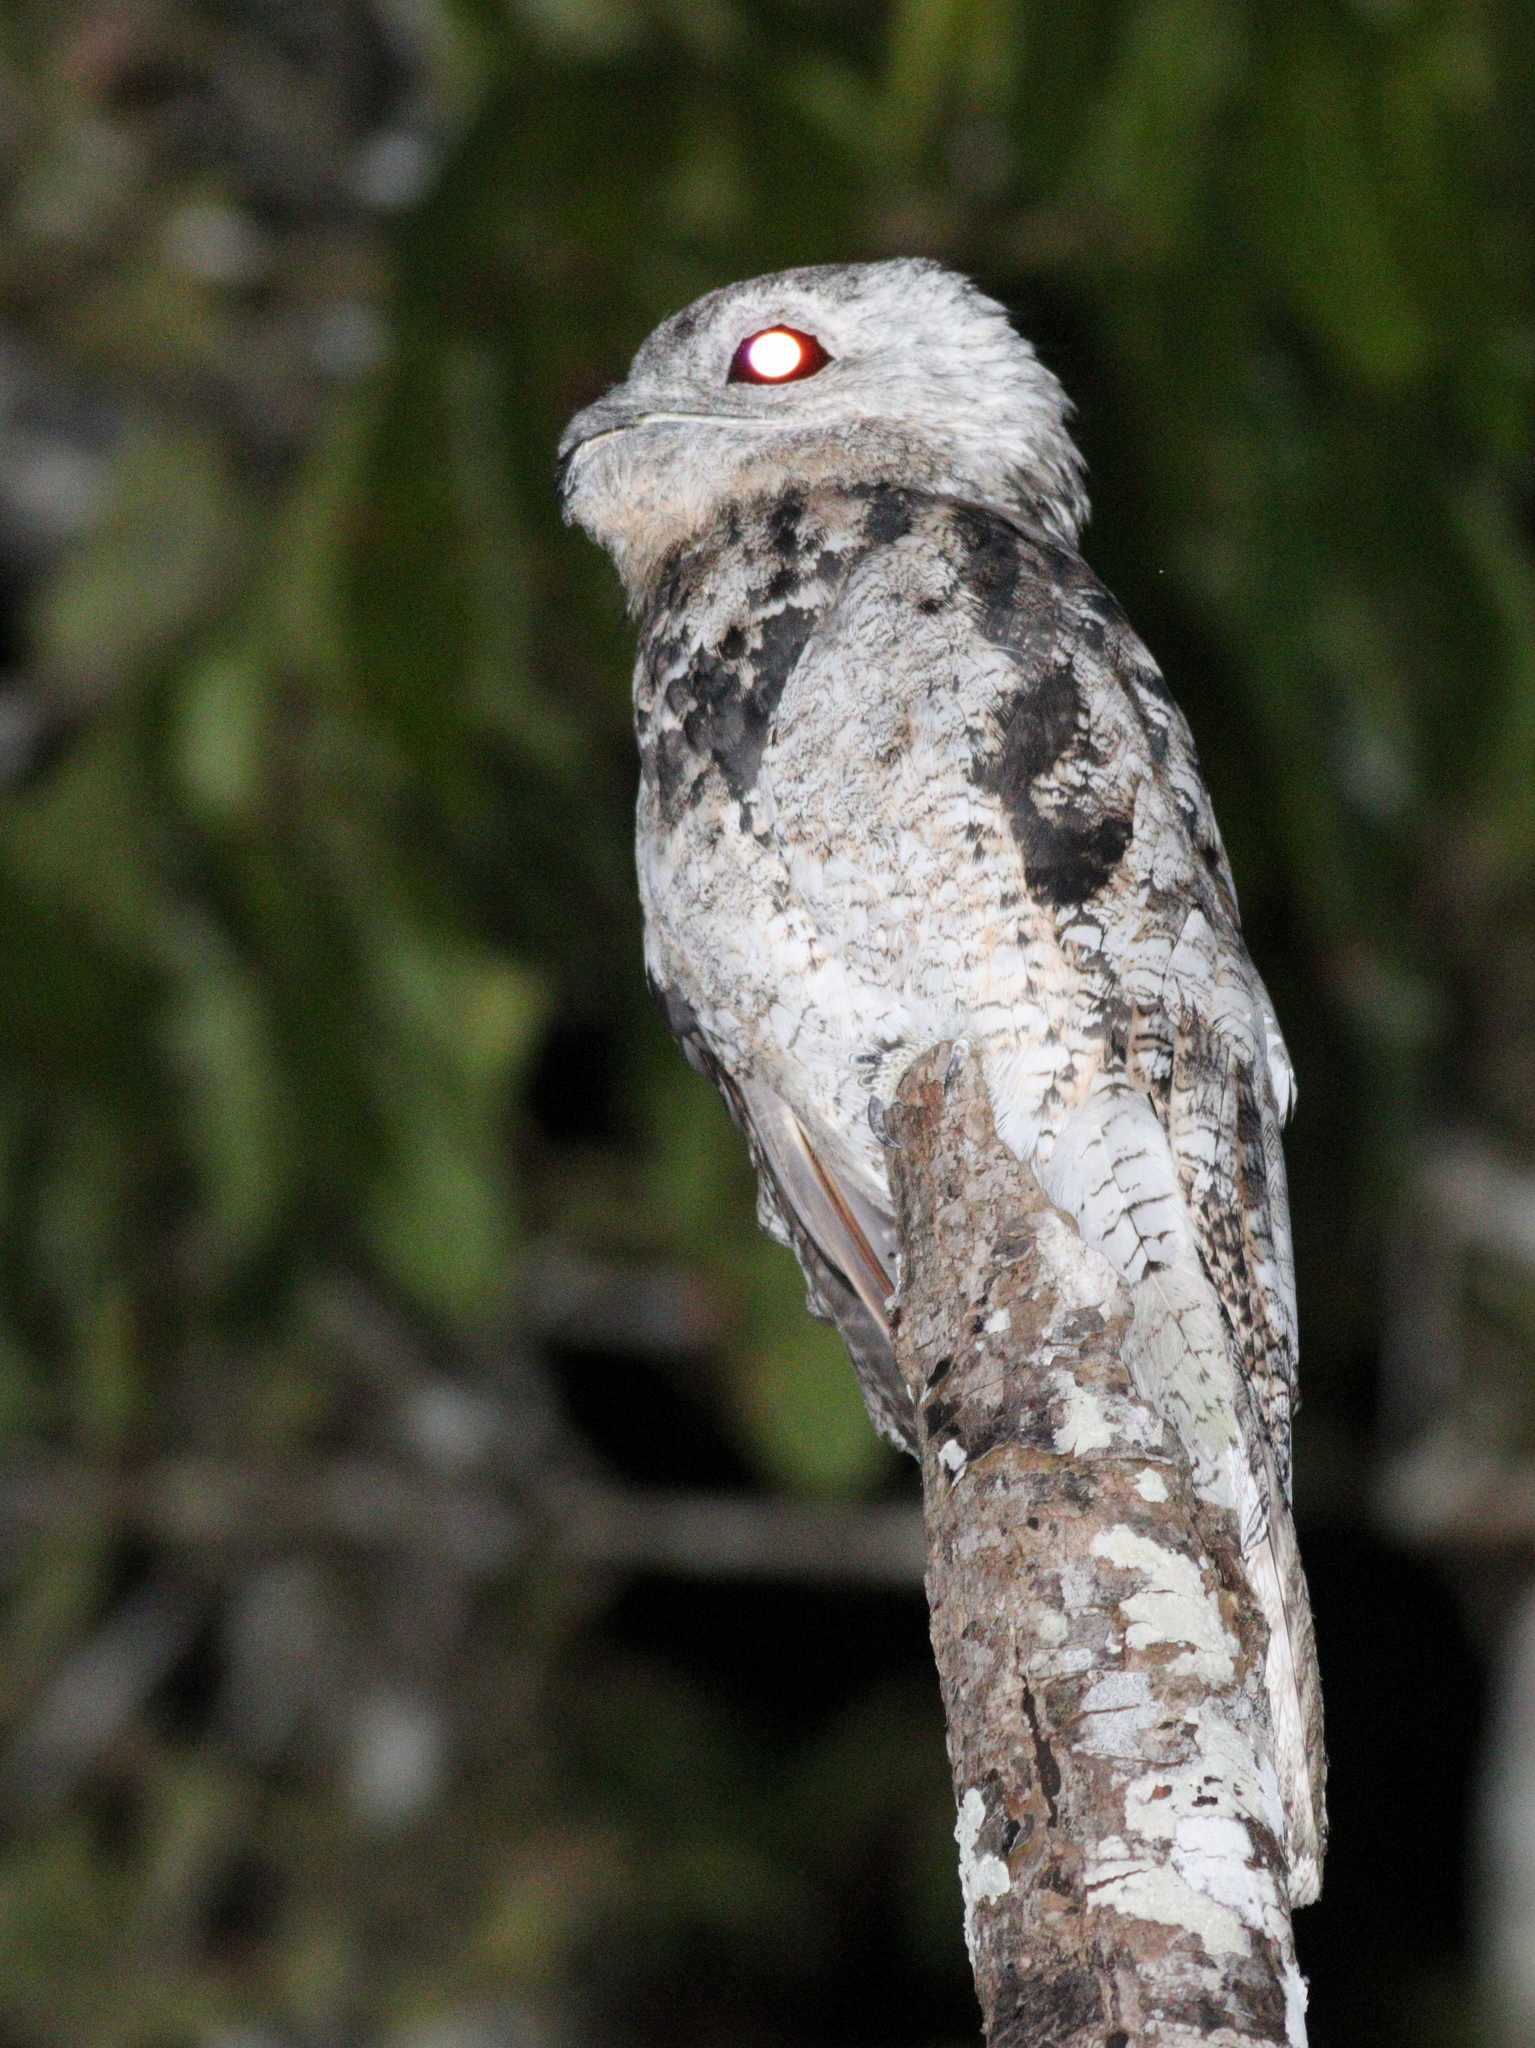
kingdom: Animalia
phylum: Chordata
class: Aves
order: Nyctibiiformes
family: Nyctibiidae
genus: Nyctibius
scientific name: Nyctibius grandis
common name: Great potoo
